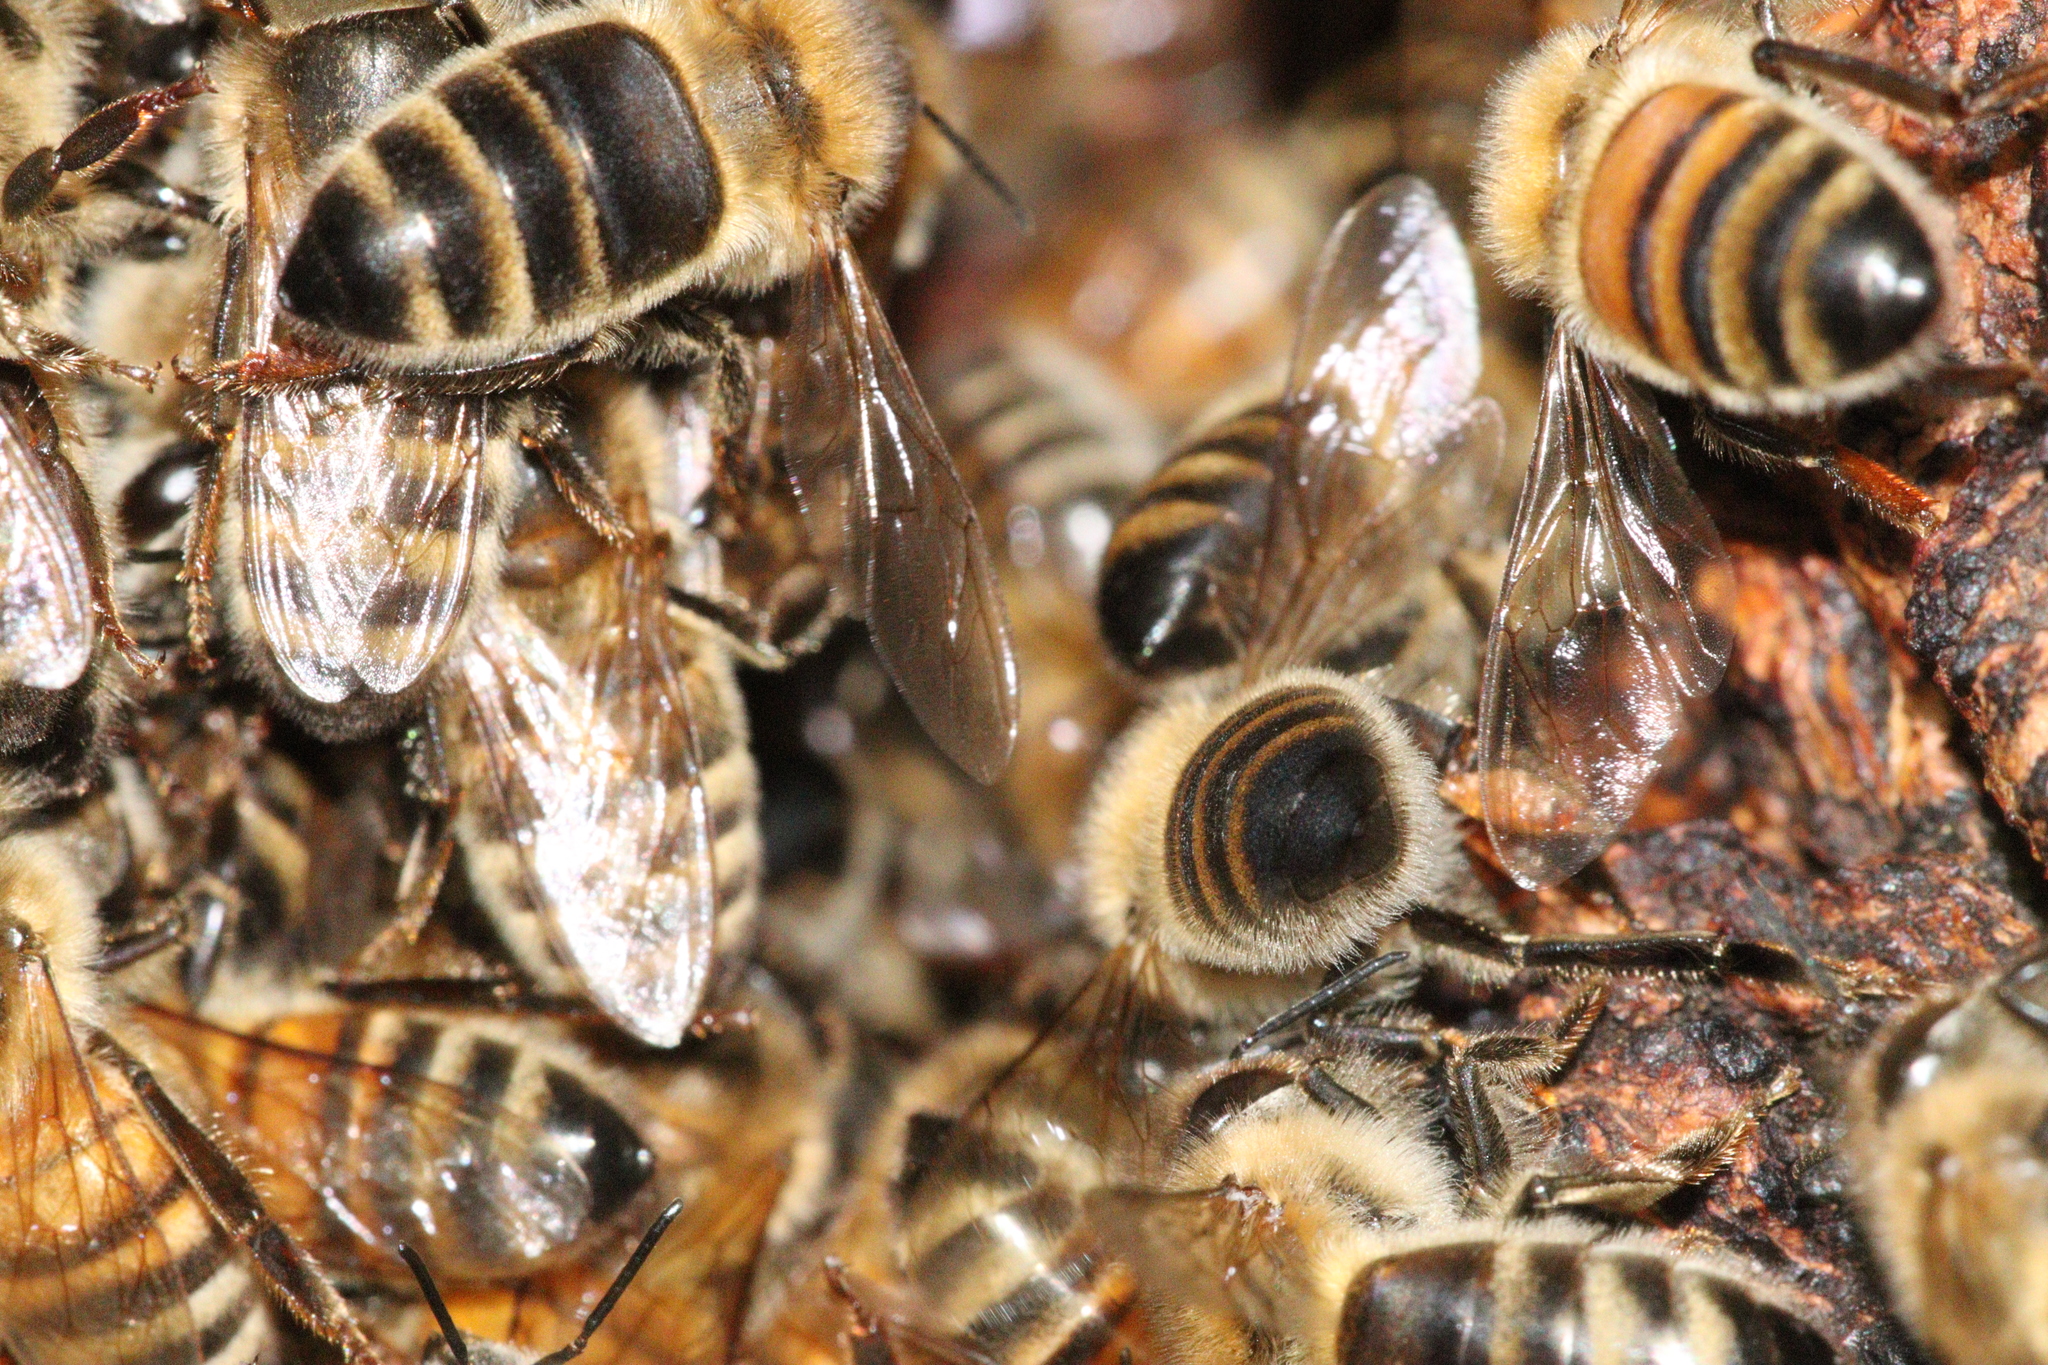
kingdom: Animalia
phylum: Arthropoda
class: Insecta
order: Hymenoptera
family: Apidae
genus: Apis
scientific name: Apis mellifera
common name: Honey bee
